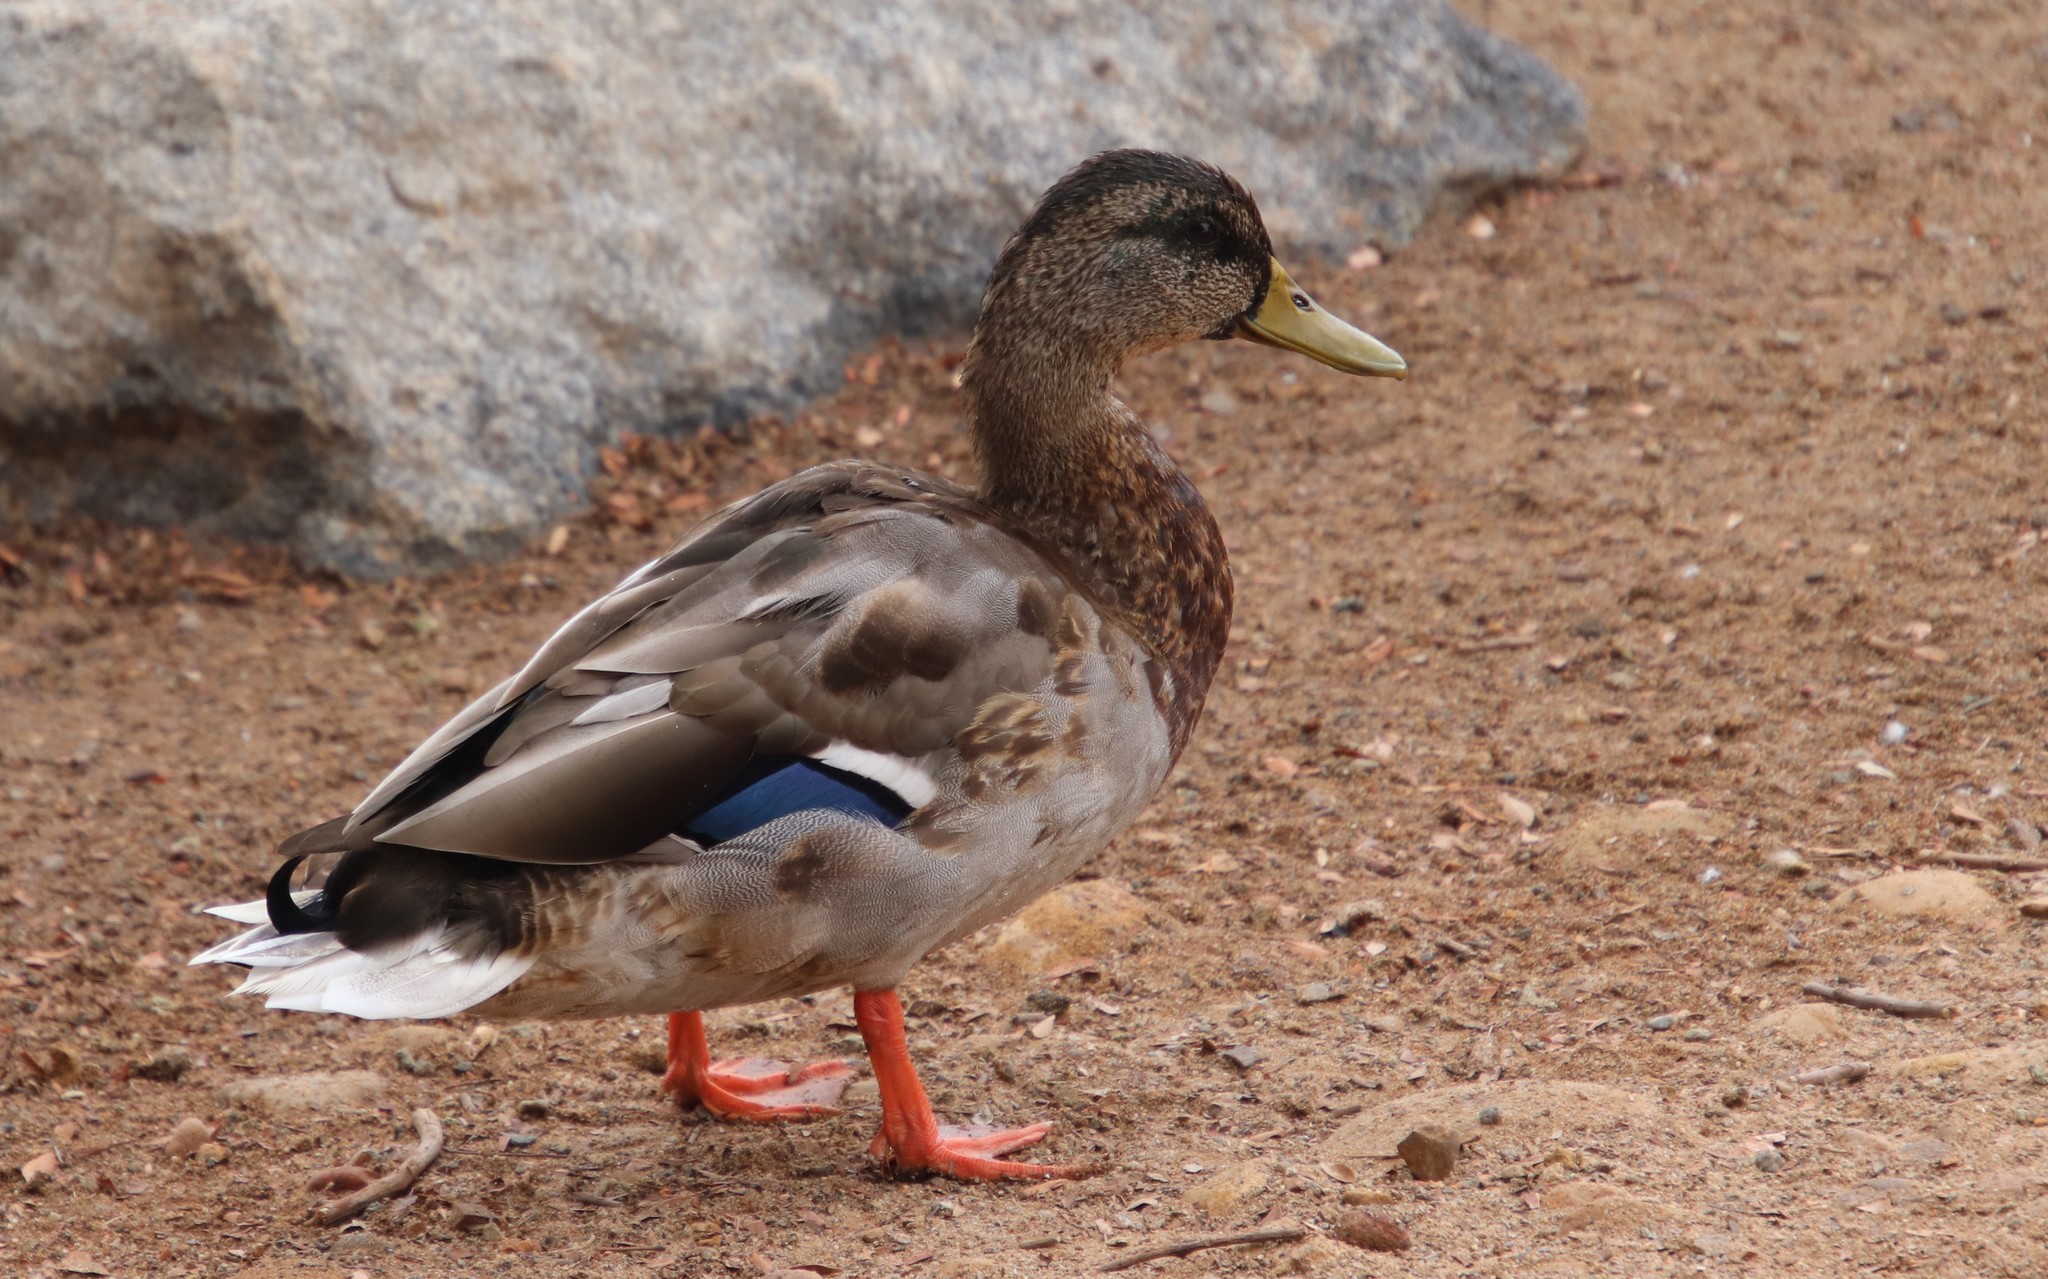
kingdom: Animalia
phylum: Chordata
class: Aves
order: Anseriformes
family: Anatidae
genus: Anas
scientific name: Anas platyrhynchos
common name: Mallard
